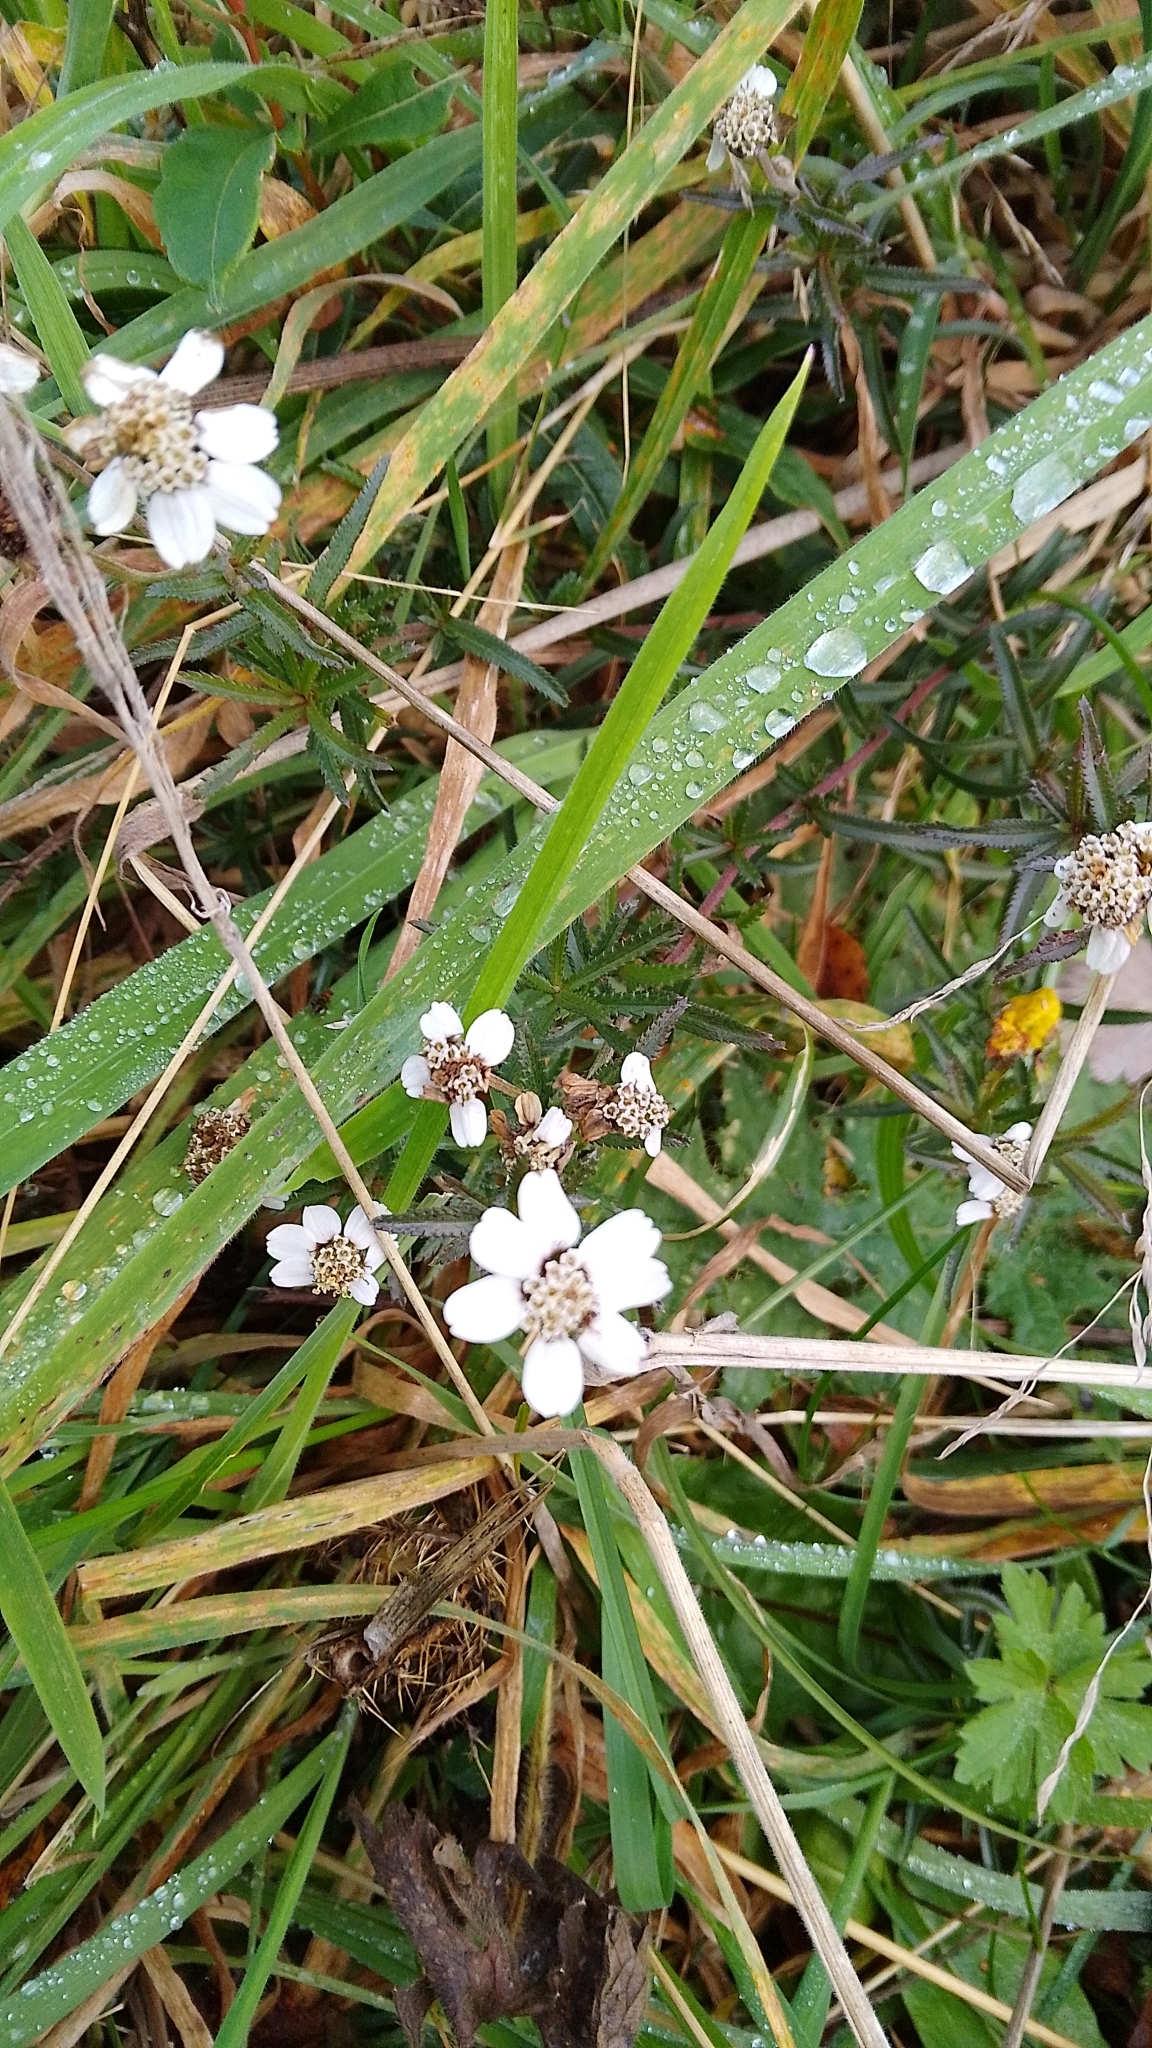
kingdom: Plantae
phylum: Tracheophyta
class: Magnoliopsida
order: Asterales
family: Asteraceae
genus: Achillea
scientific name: Achillea ptarmica
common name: Sneezeweed
